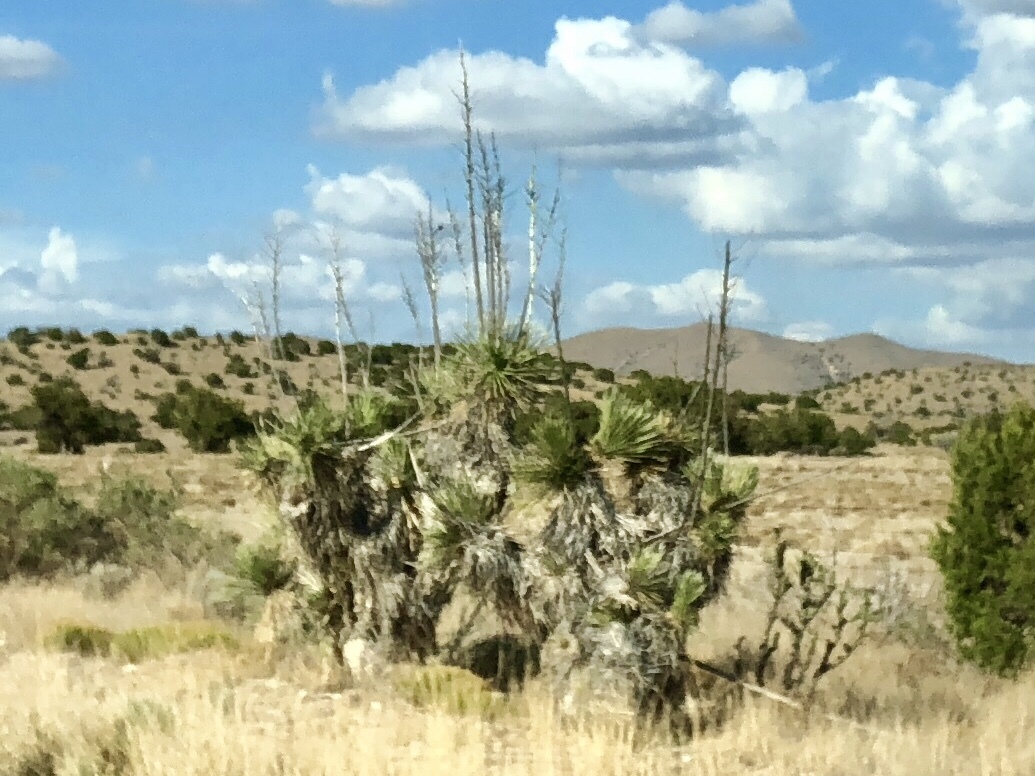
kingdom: Plantae
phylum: Tracheophyta
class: Liliopsida
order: Asparagales
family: Asparagaceae
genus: Yucca
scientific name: Yucca elata
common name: Palmella
